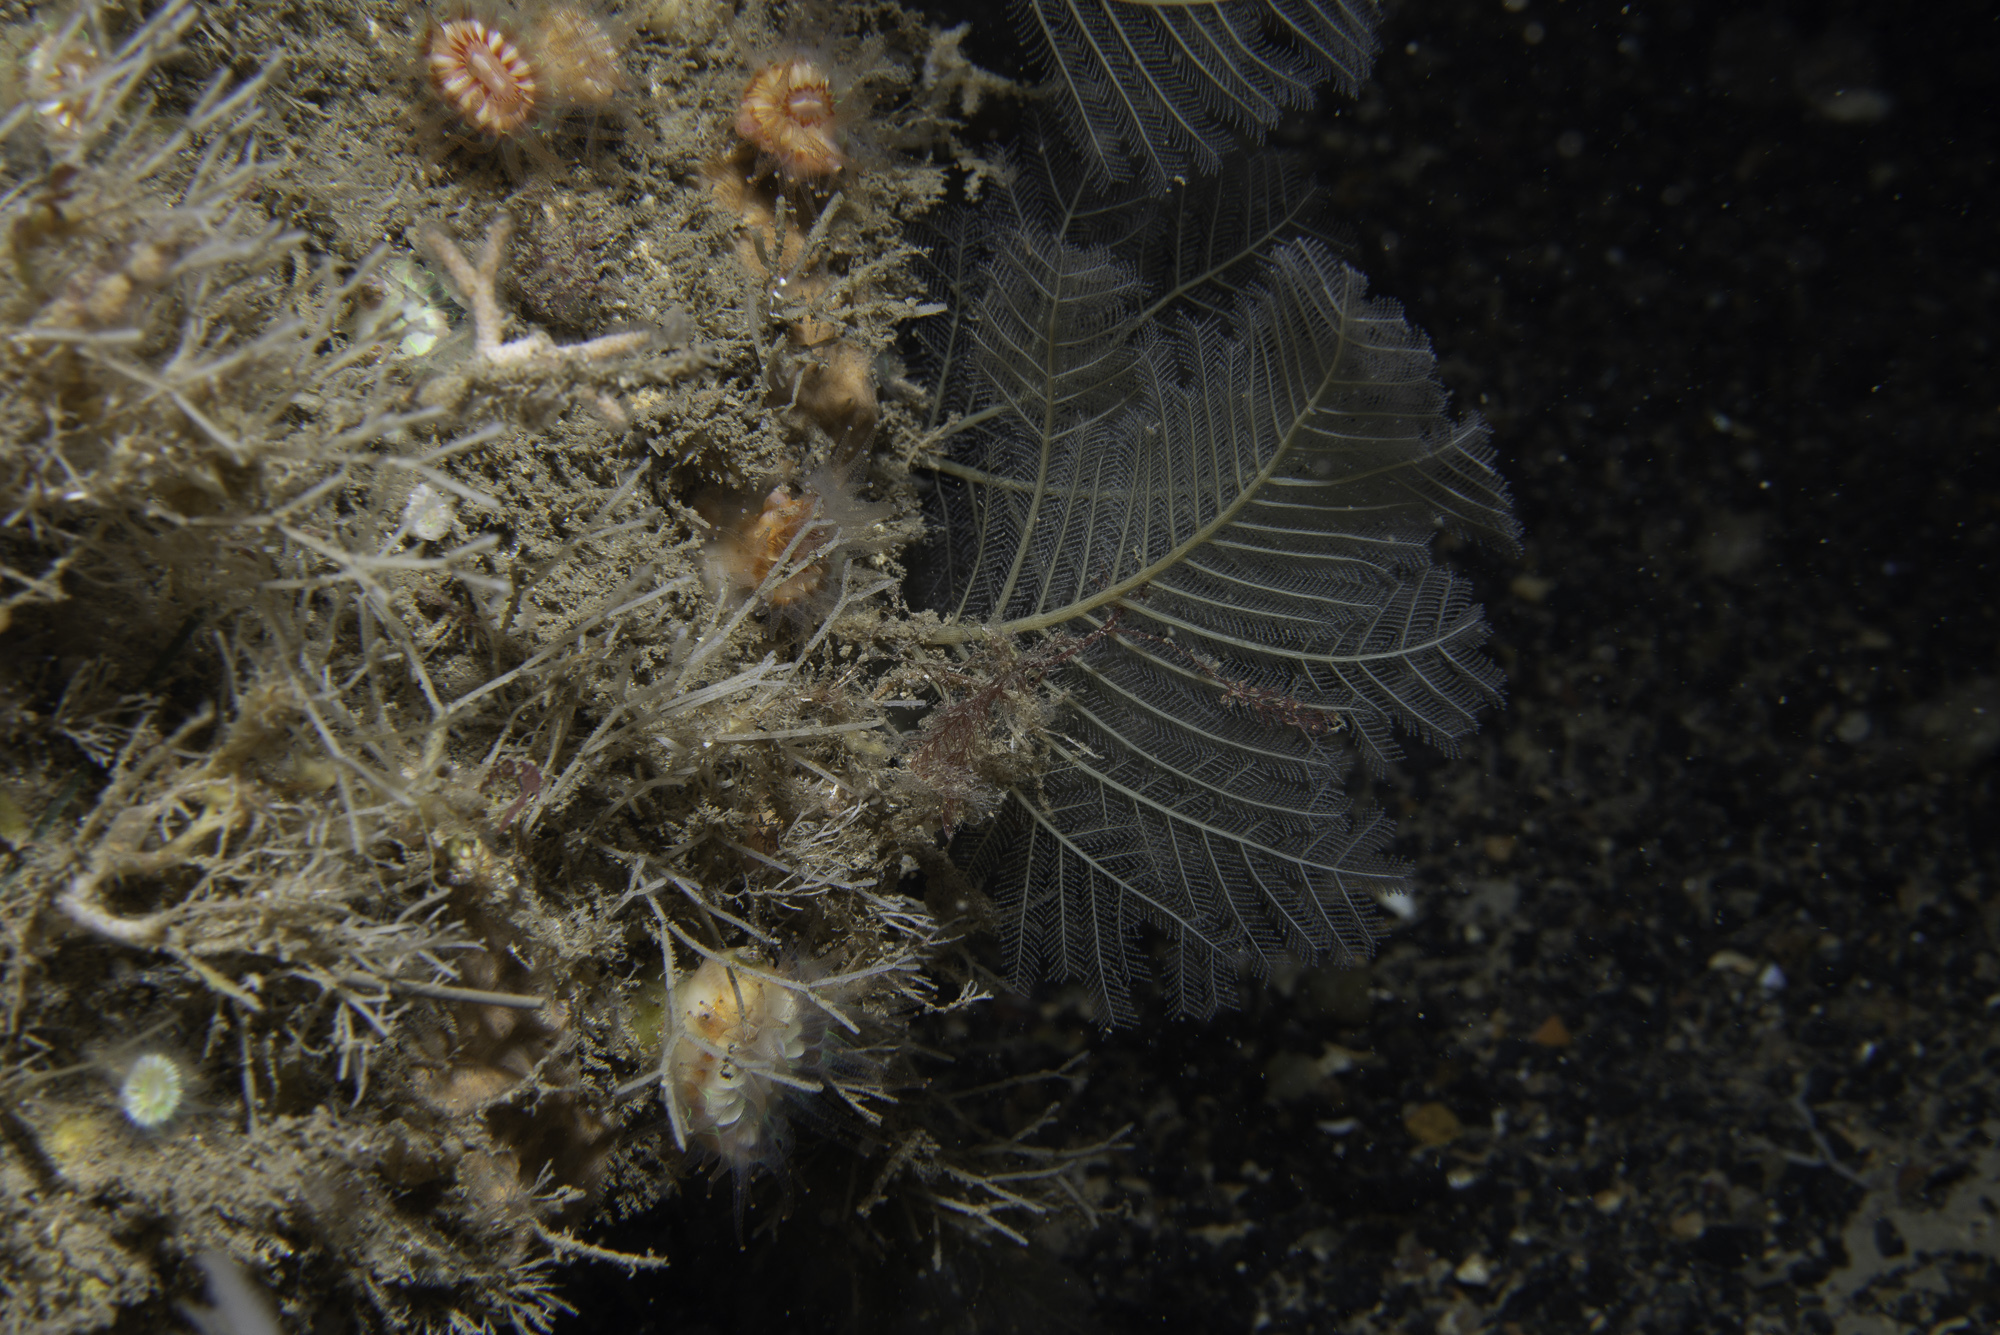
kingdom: Animalia
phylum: Cnidaria
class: Hydrozoa
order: Leptothecata
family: Halopterididae
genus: Polyplumaria
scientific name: Polyplumaria flabellata
